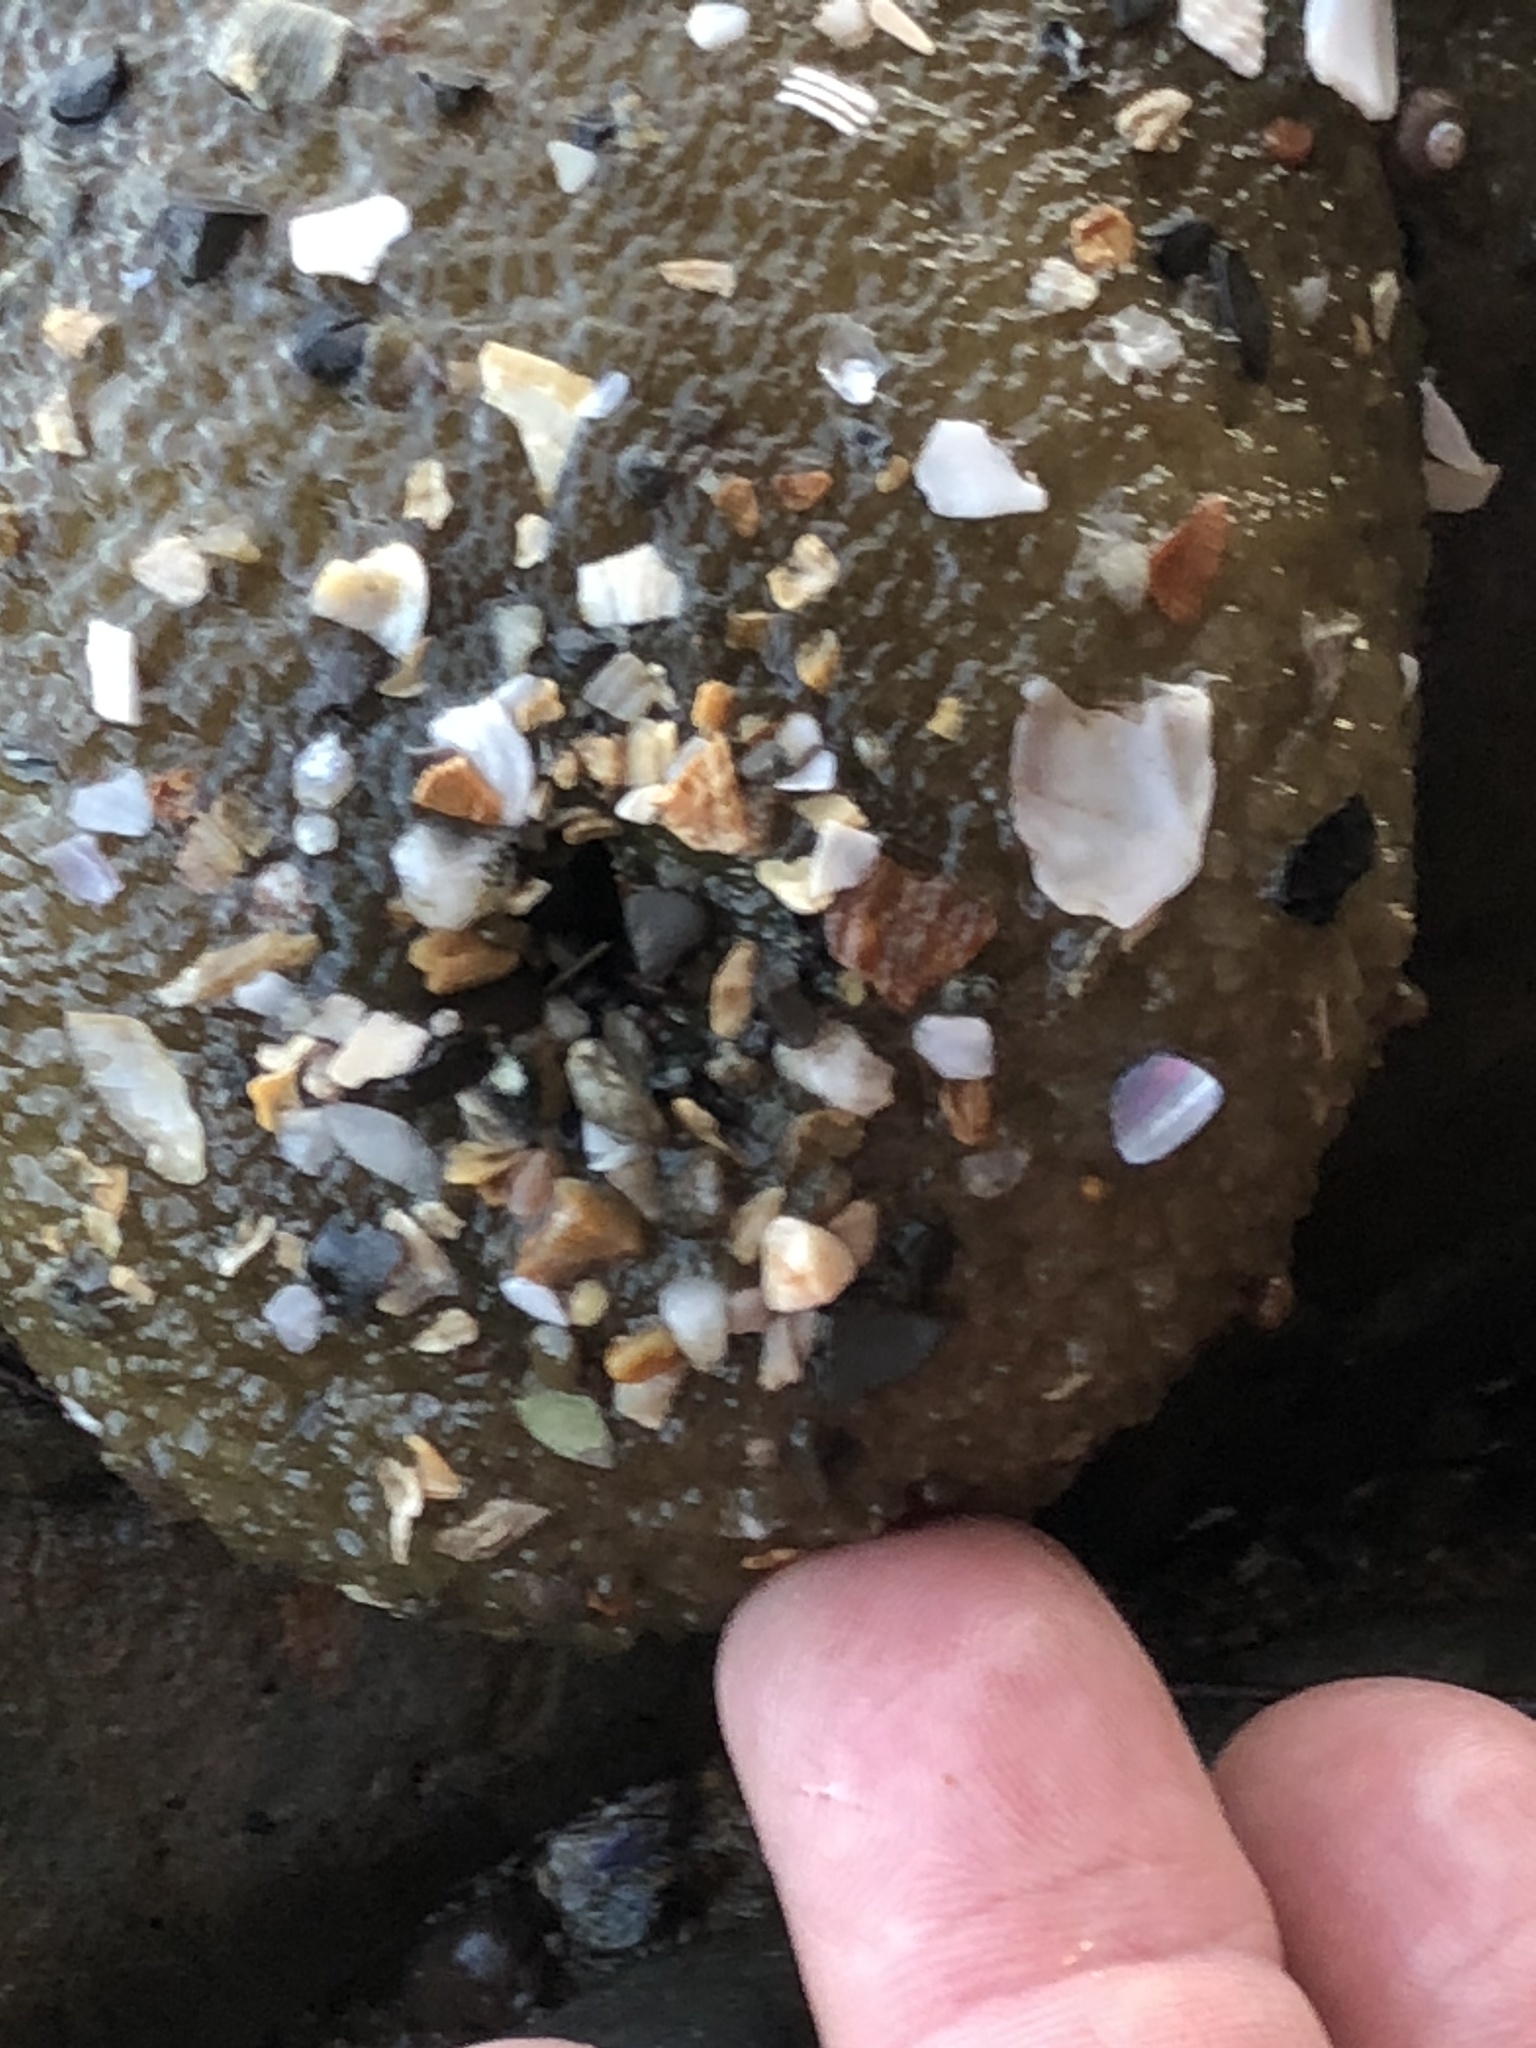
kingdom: Animalia
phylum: Cnidaria
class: Anthozoa
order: Actiniaria
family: Actiniidae
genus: Anthopleura
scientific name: Anthopleura xanthogrammica
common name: Giant green anemone
